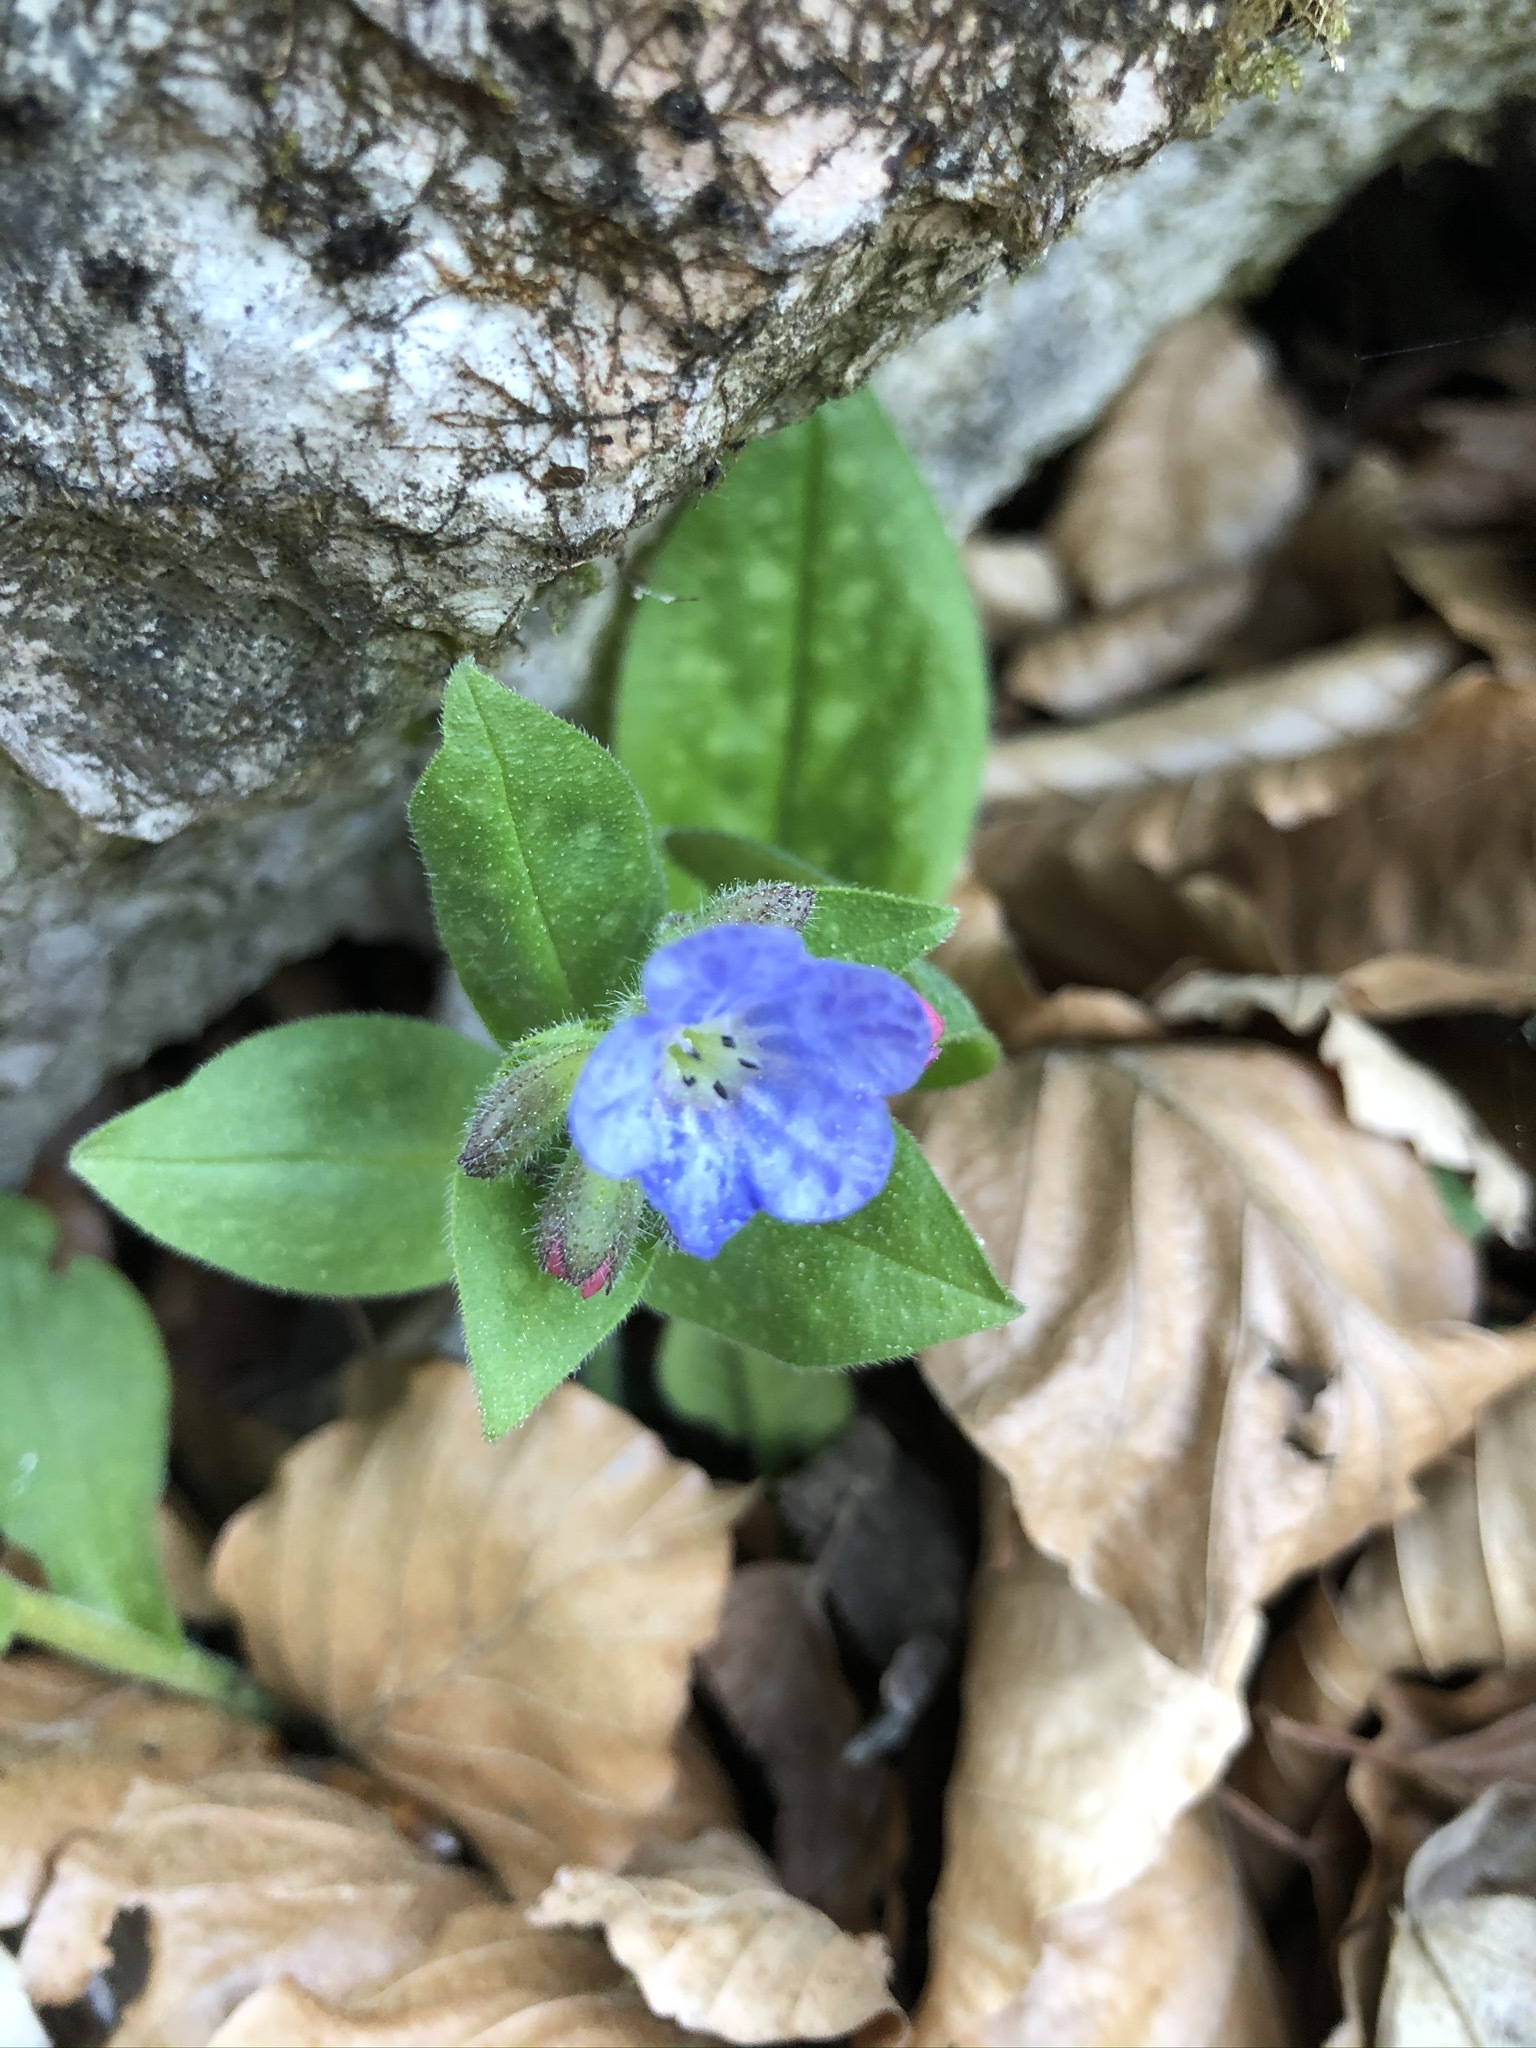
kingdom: Plantae
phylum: Tracheophyta
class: Magnoliopsida
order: Boraginales
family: Boraginaceae
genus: Pulmonaria
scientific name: Pulmonaria officinalis
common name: Lungwort
